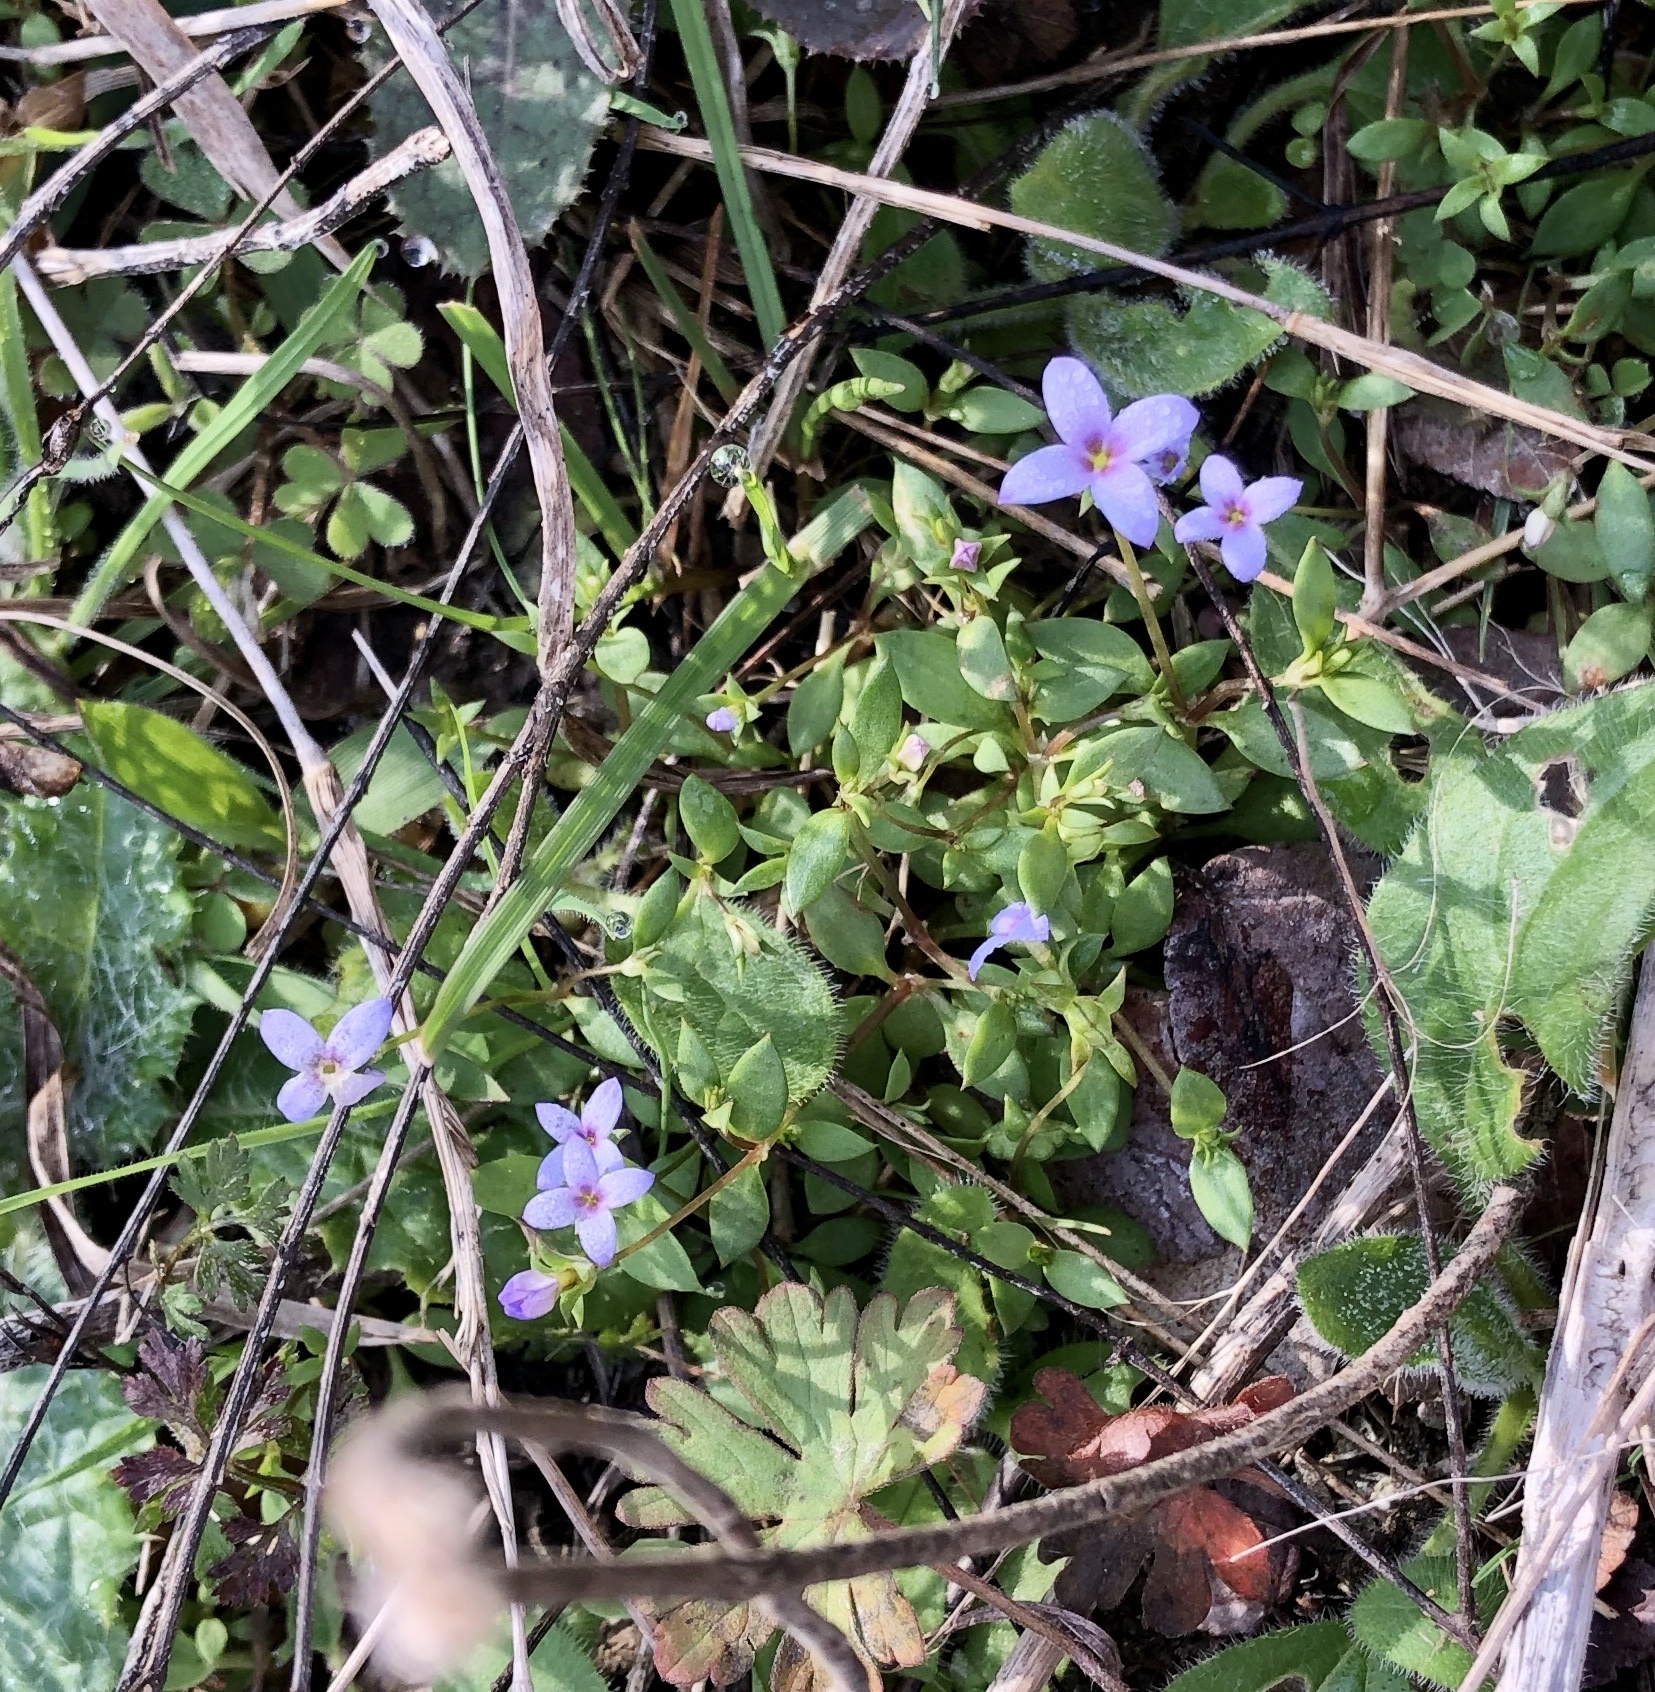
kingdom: Plantae
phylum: Tracheophyta
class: Magnoliopsida
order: Gentianales
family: Rubiaceae
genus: Houstonia
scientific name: Houstonia pusilla
